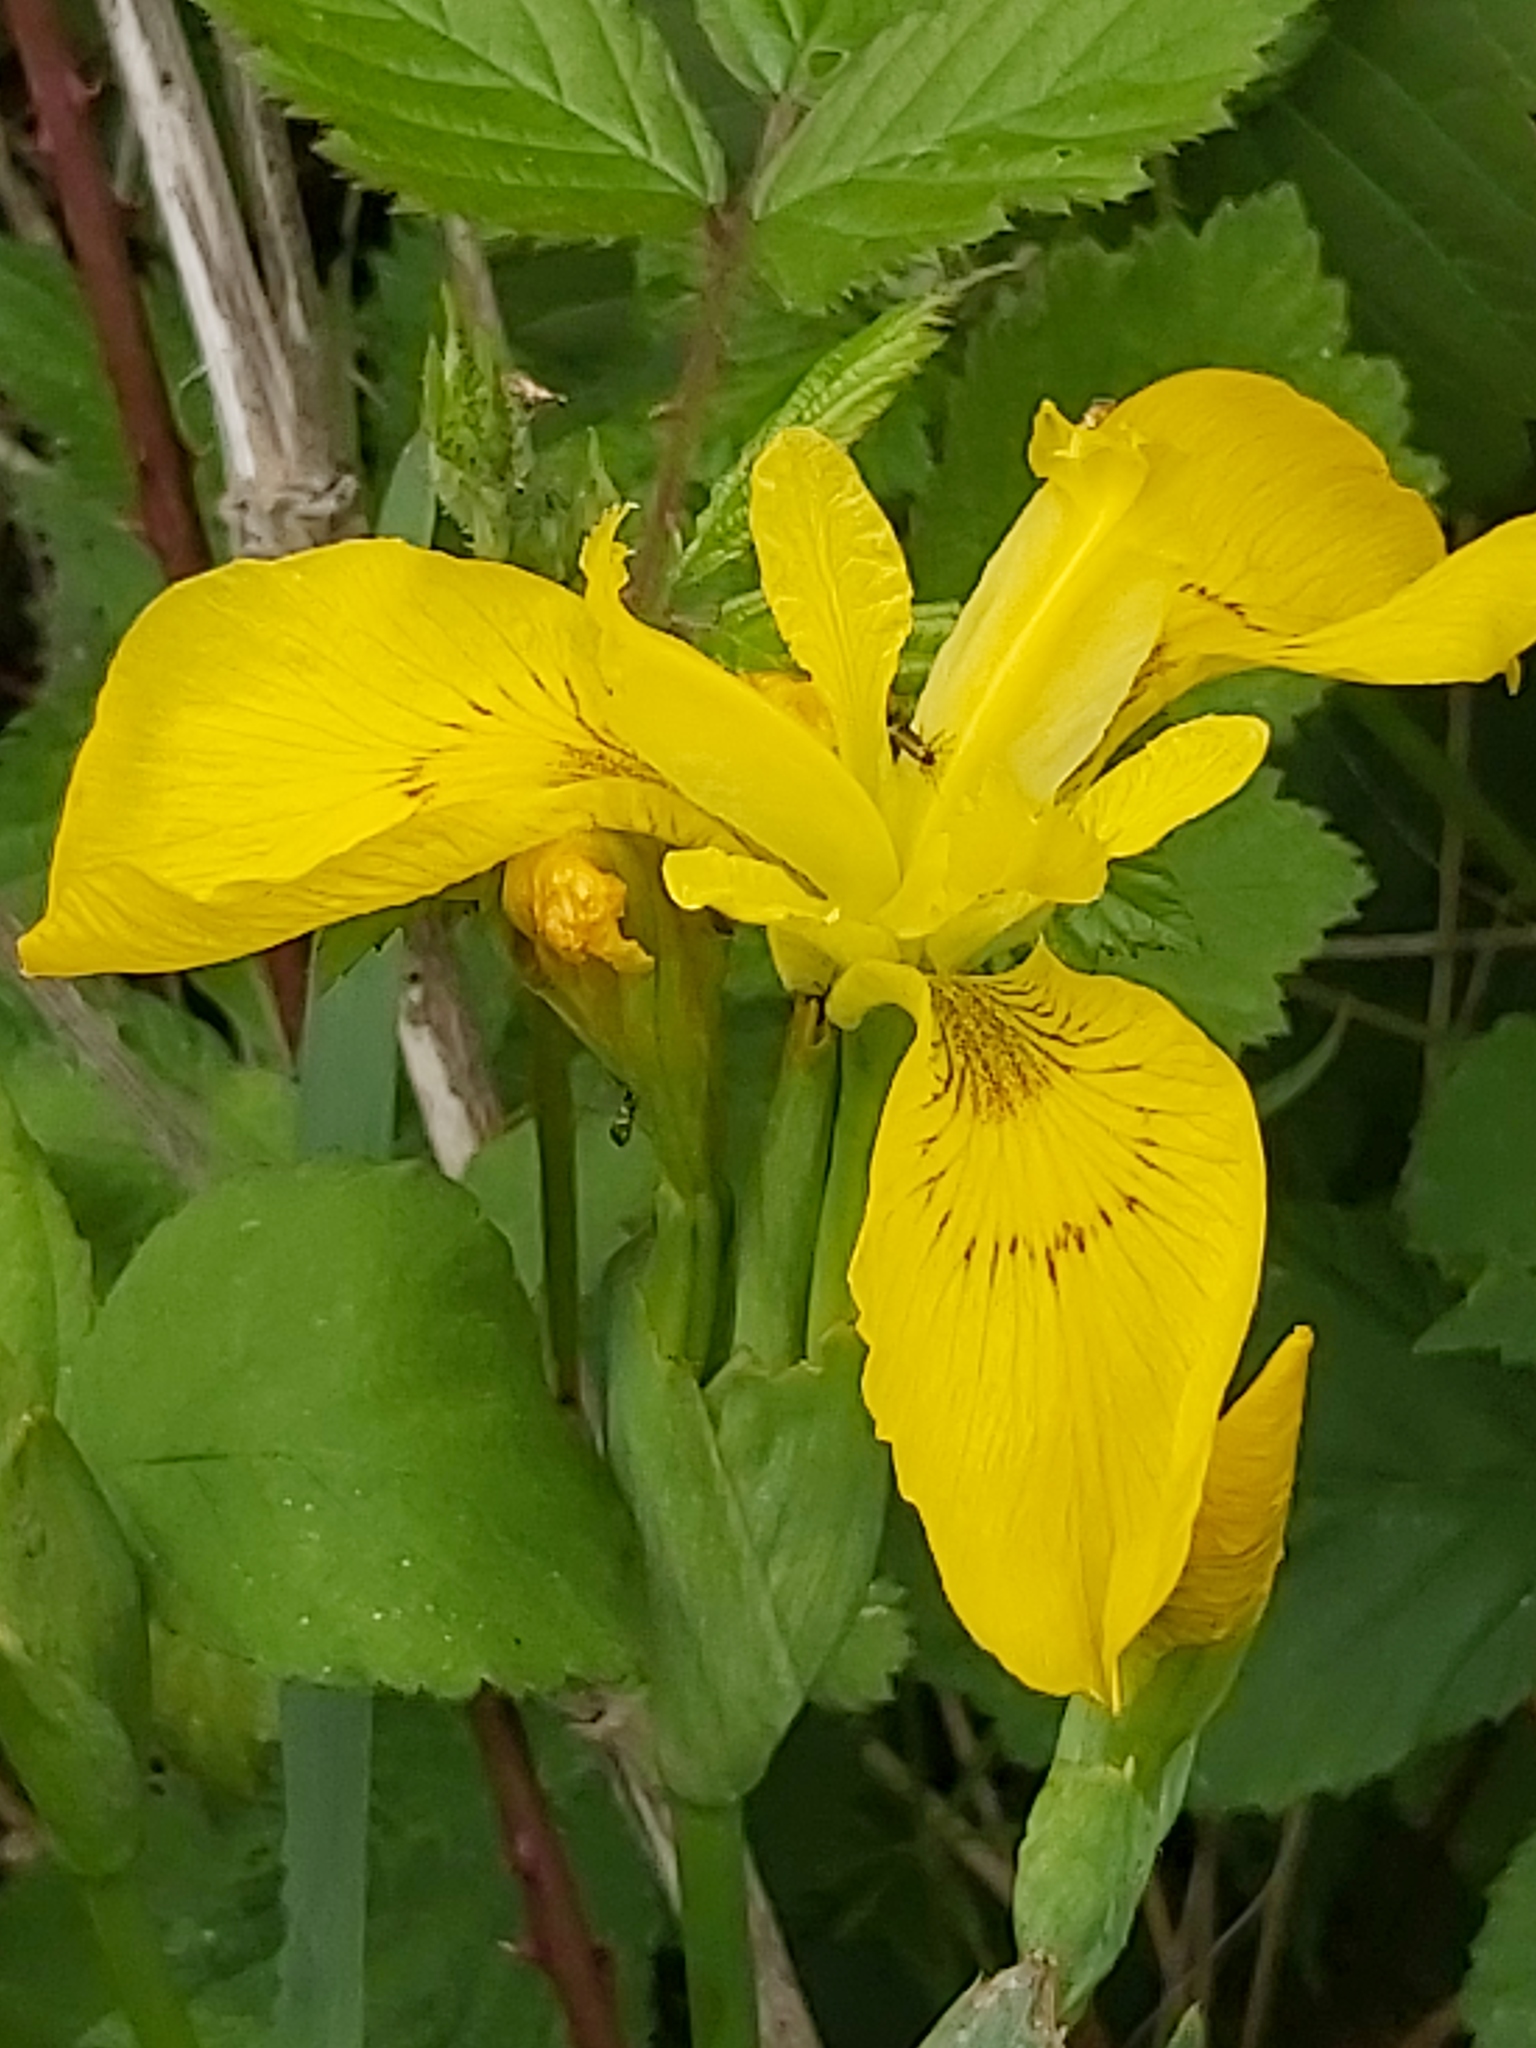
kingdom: Plantae
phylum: Tracheophyta
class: Liliopsida
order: Asparagales
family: Iridaceae
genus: Iris
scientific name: Iris pseudacorus
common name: Yellow flag
